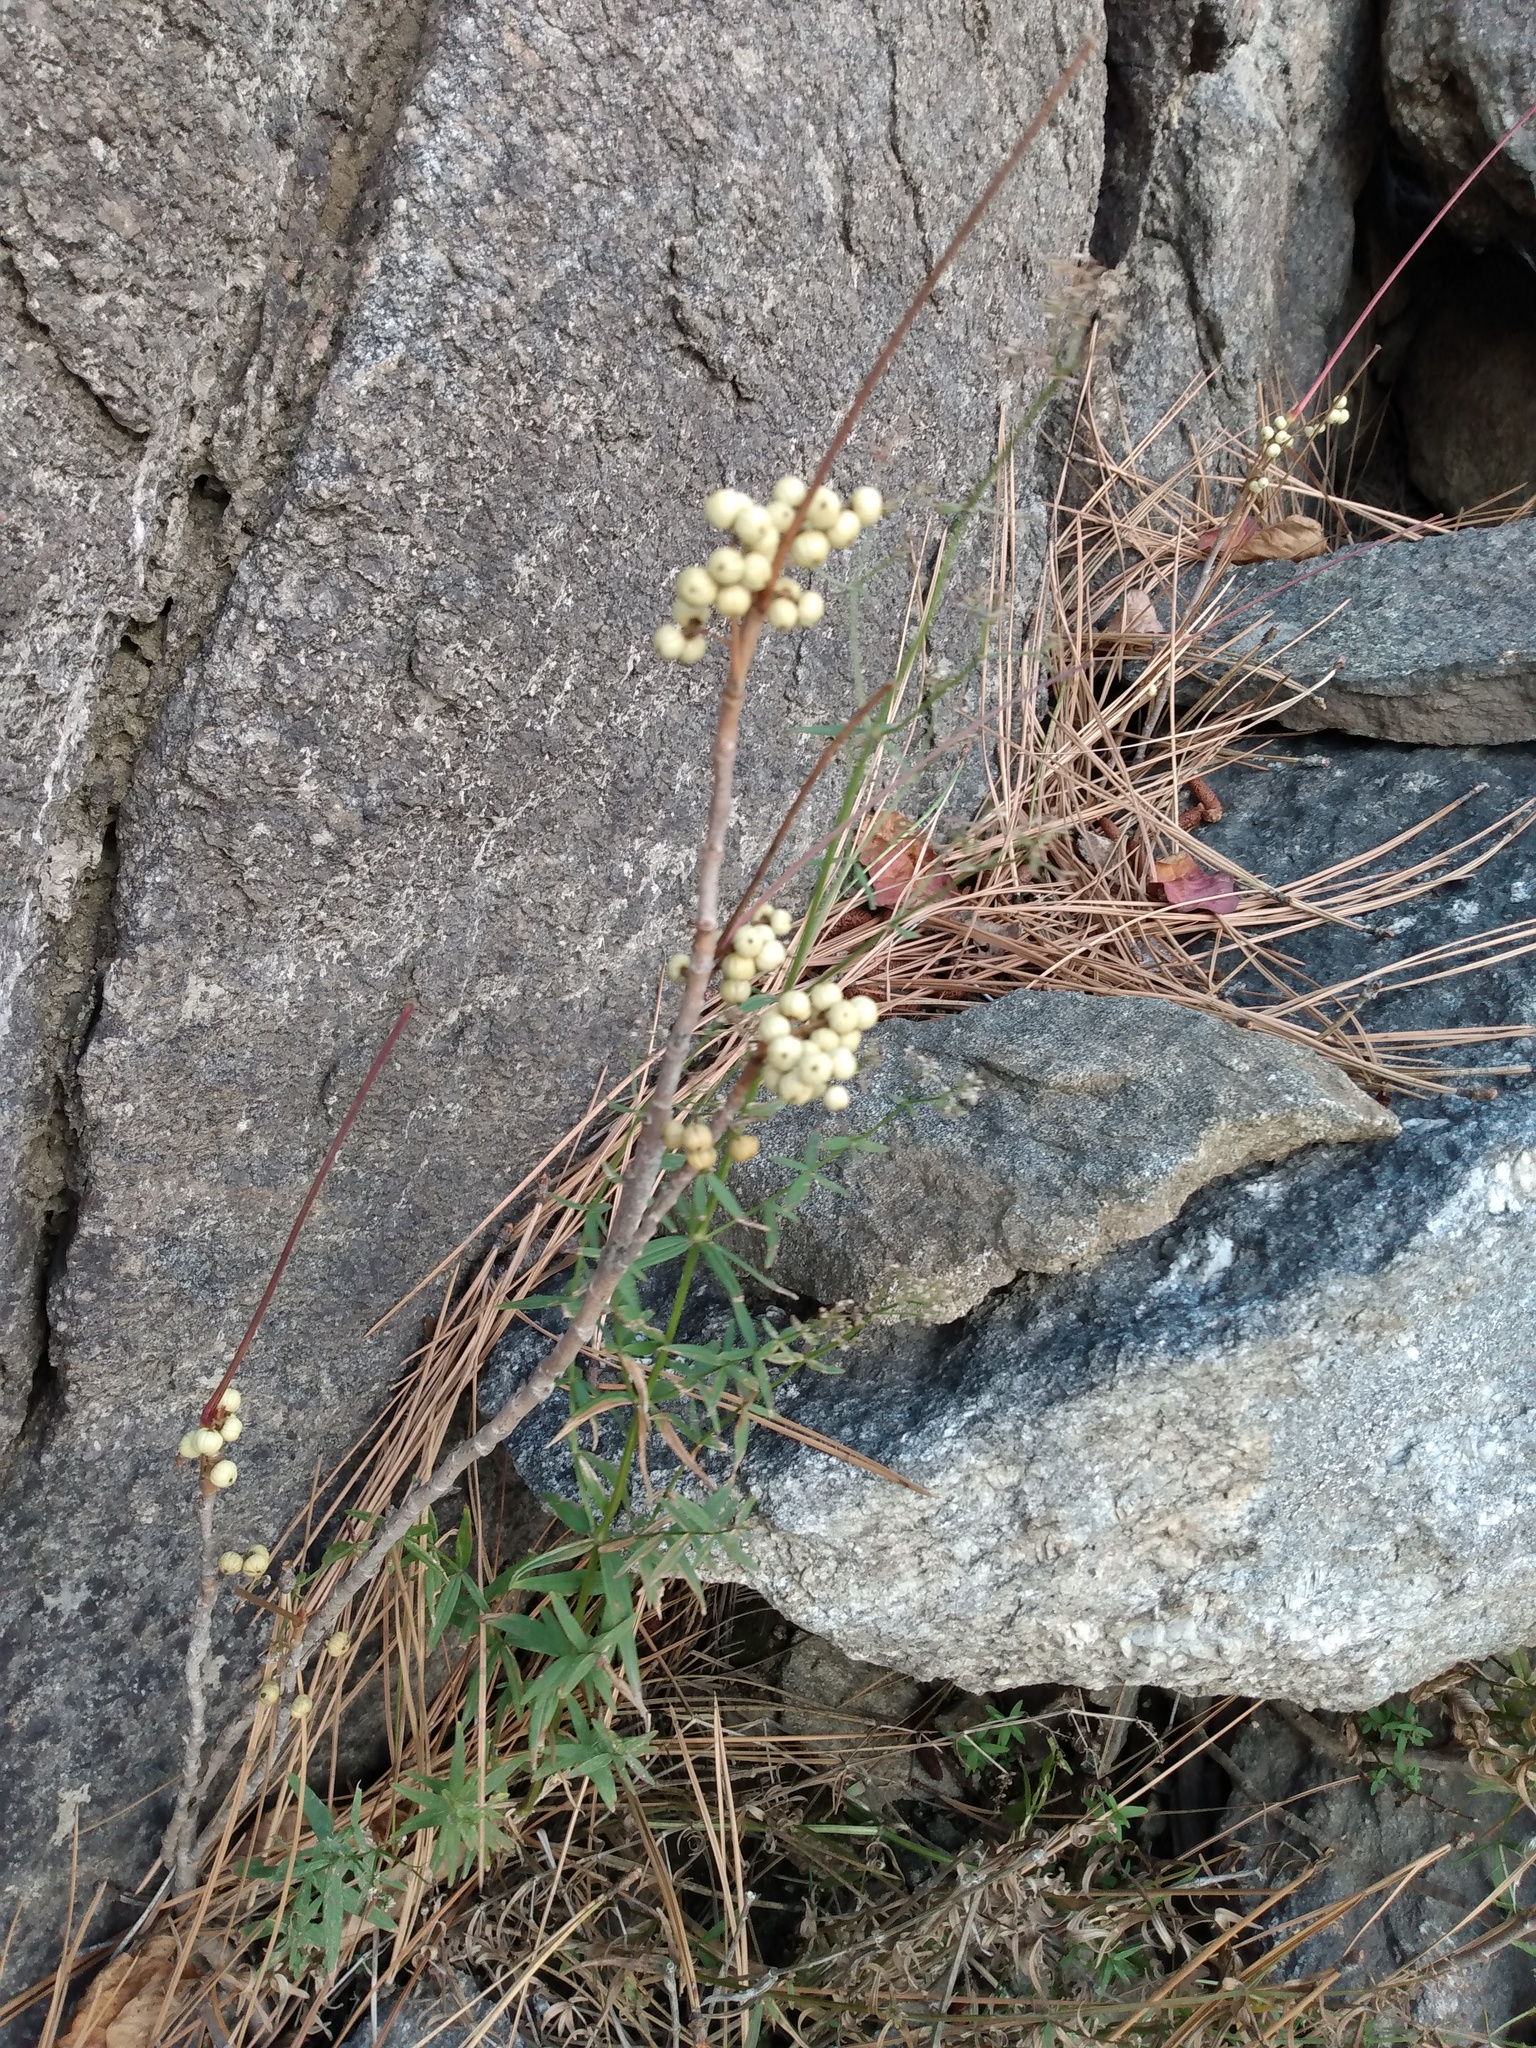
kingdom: Plantae
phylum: Tracheophyta
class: Magnoliopsida
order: Sapindales
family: Anacardiaceae
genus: Toxicodendron
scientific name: Toxicodendron rydbergii
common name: Rydberg's poison-ivy
